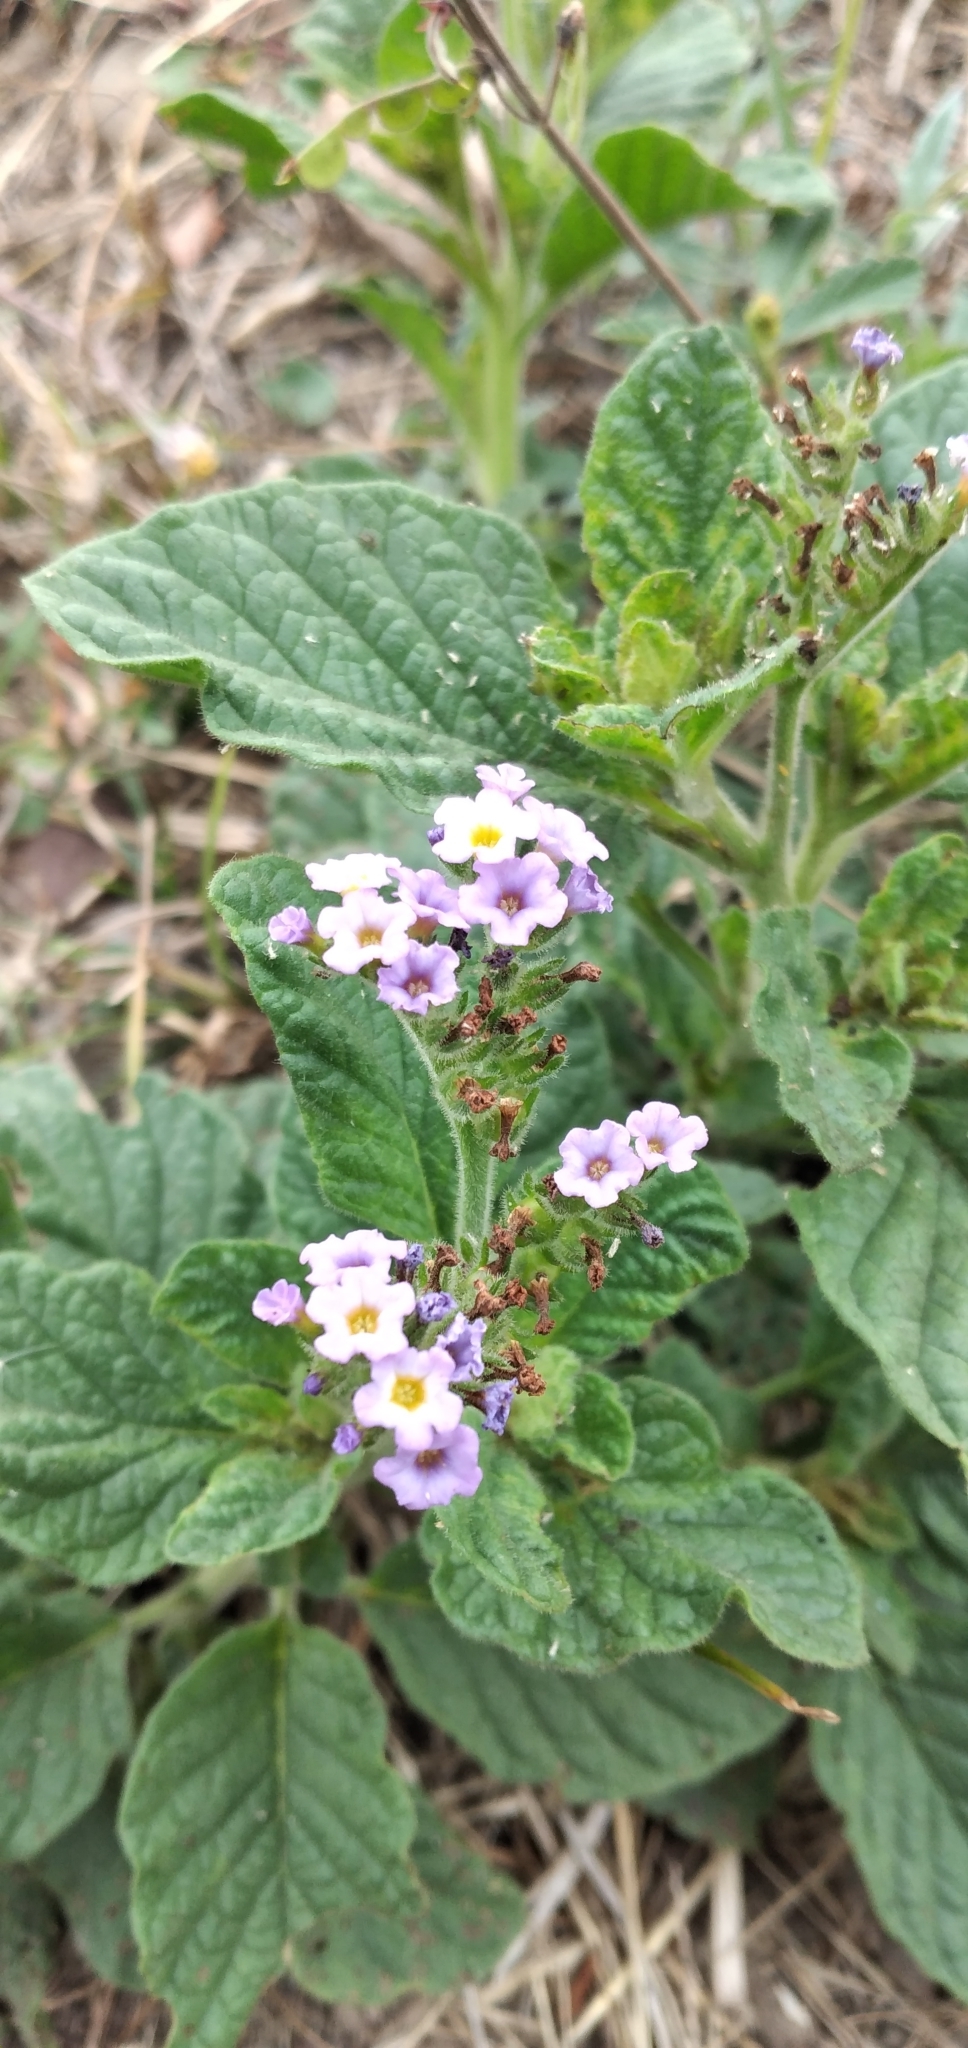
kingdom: Plantae
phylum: Tracheophyta
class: Magnoliopsida
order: Boraginales
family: Heliotropiaceae
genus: Heliotropium
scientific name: Heliotropium nicotianifolium
